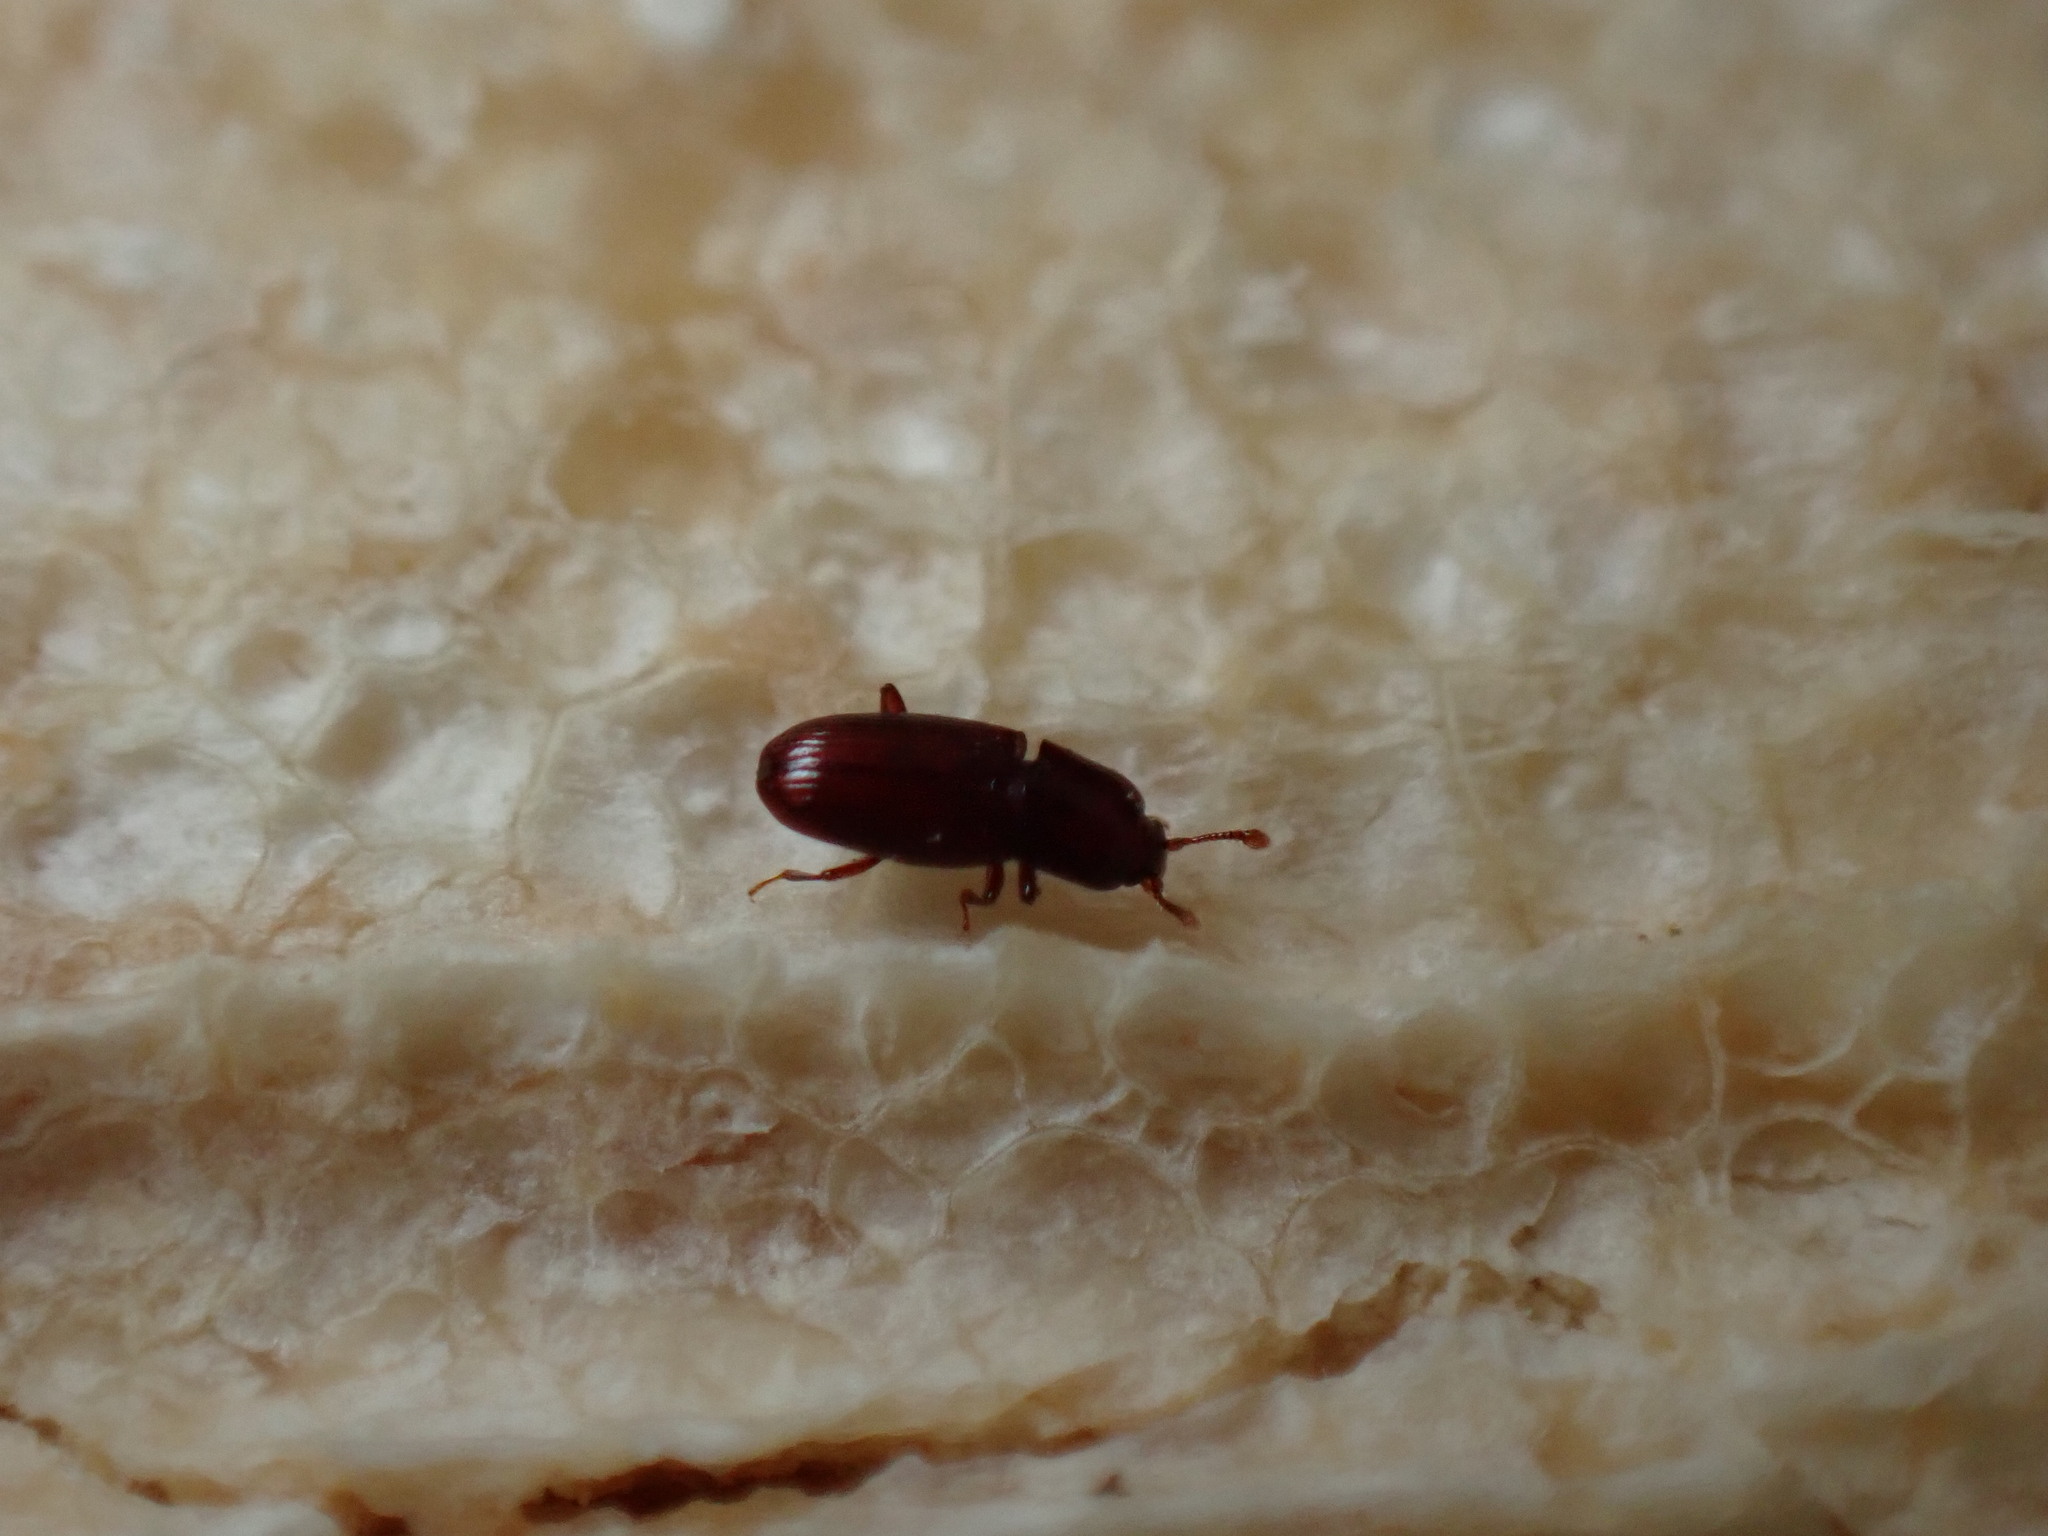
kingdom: Animalia
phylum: Arthropoda
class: Insecta
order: Coleoptera
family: Cerylonidae
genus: Cerylon
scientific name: Cerylon unicolor
